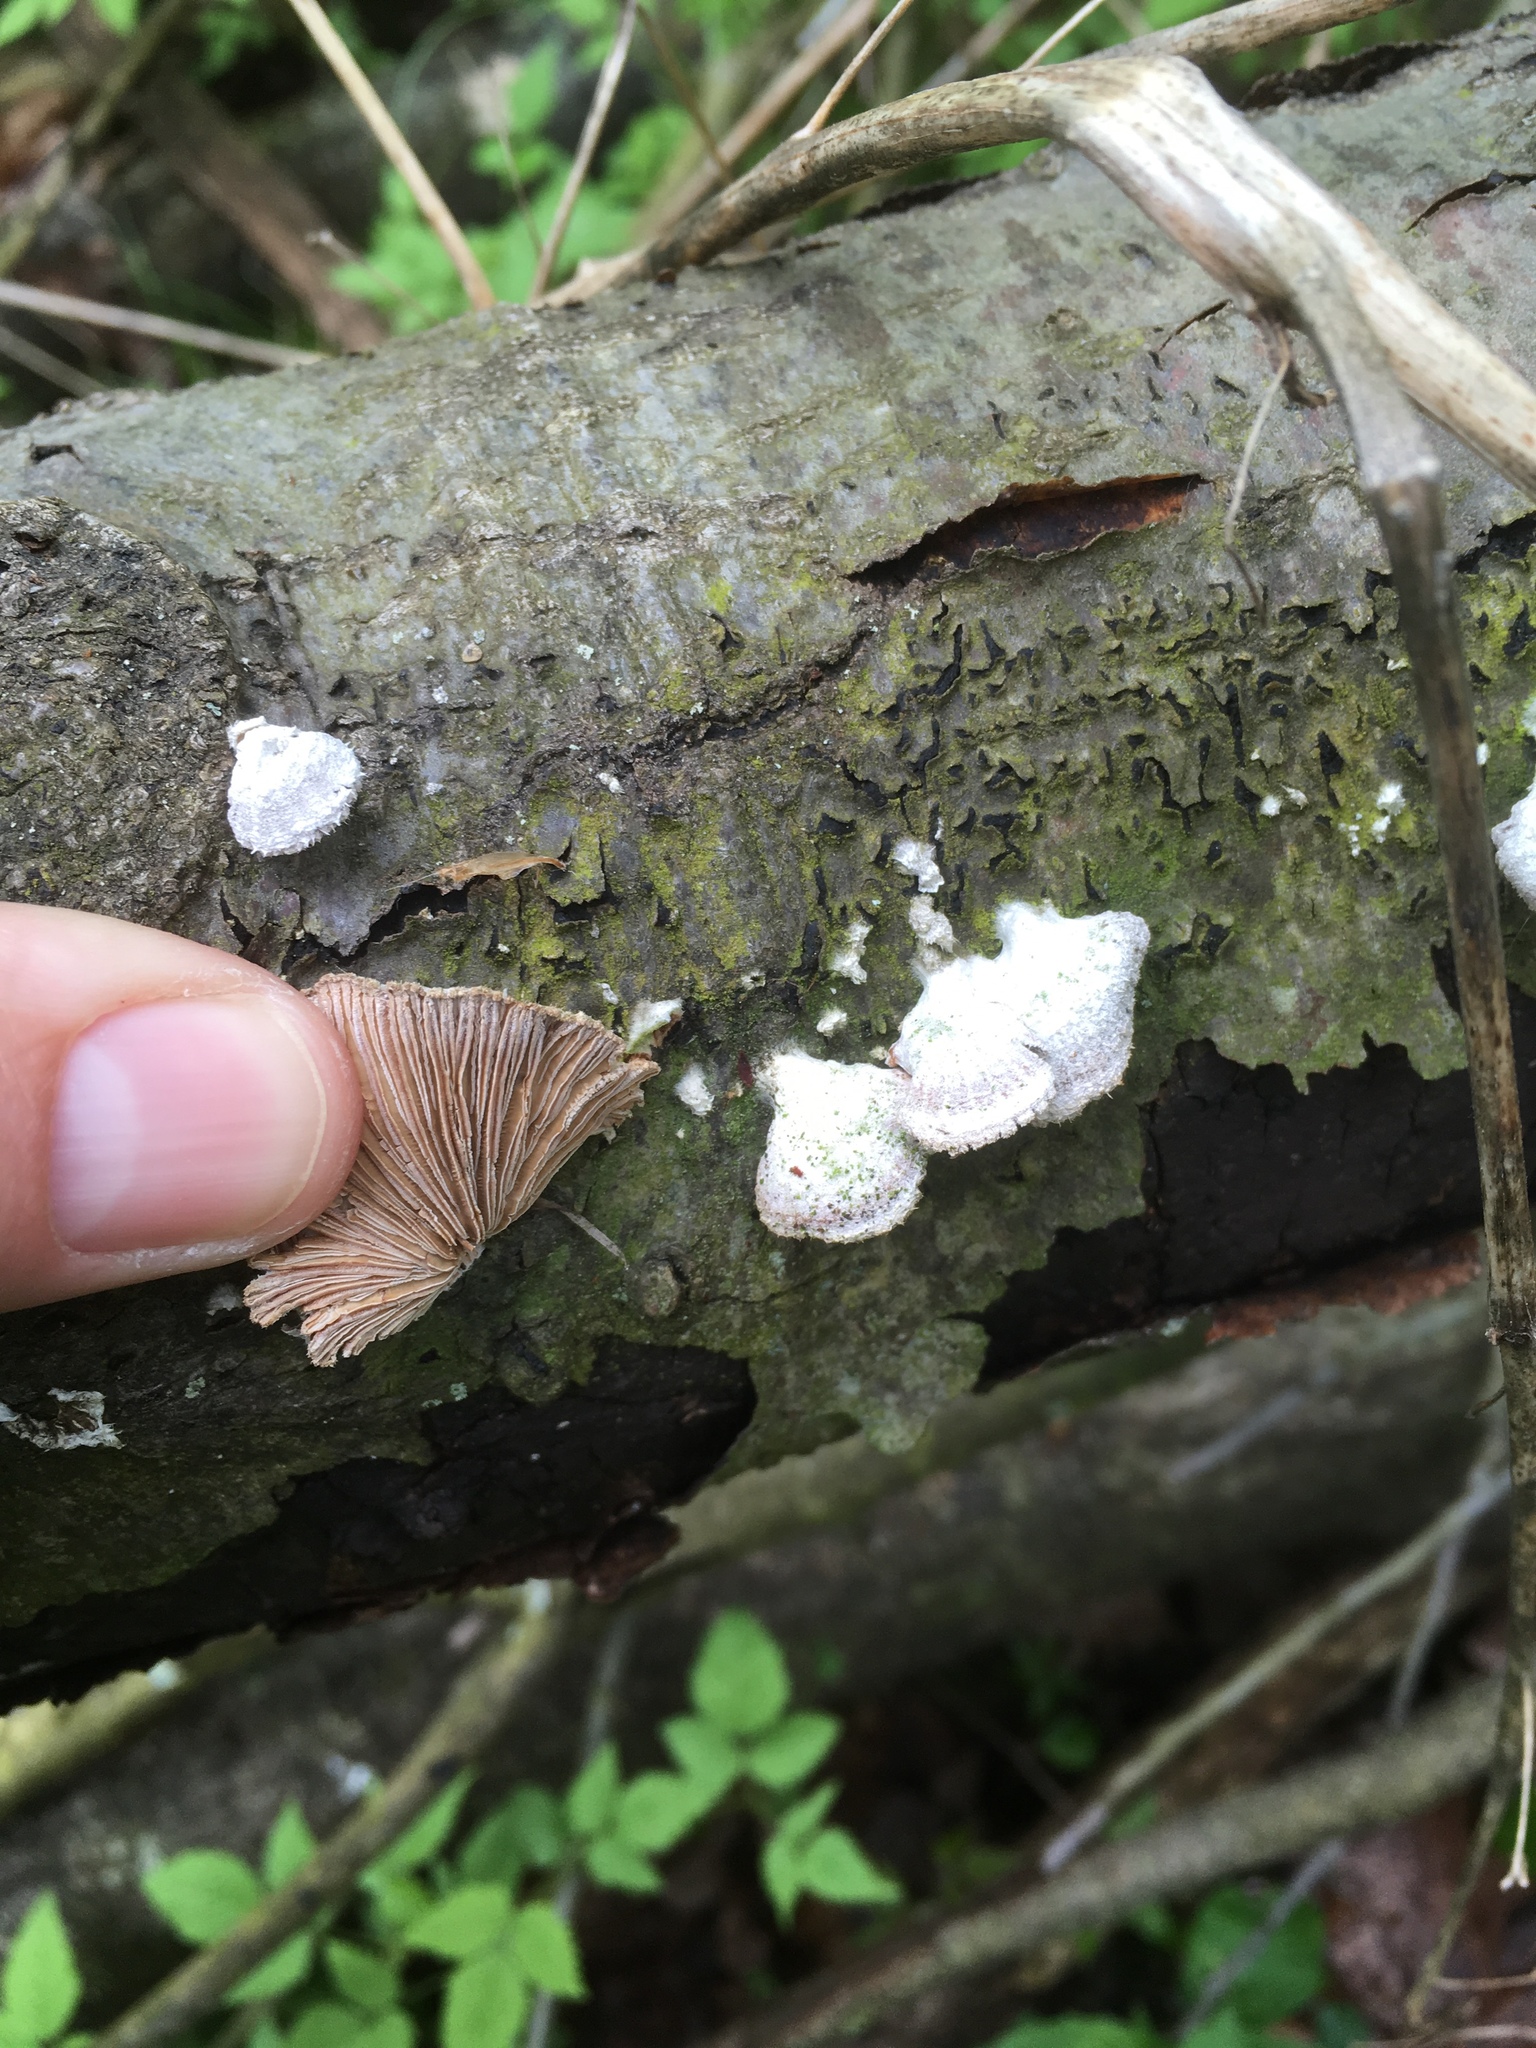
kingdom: Fungi
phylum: Basidiomycota
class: Agaricomycetes
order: Agaricales
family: Schizophyllaceae
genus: Schizophyllum
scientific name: Schizophyllum commune
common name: Common porecrust
